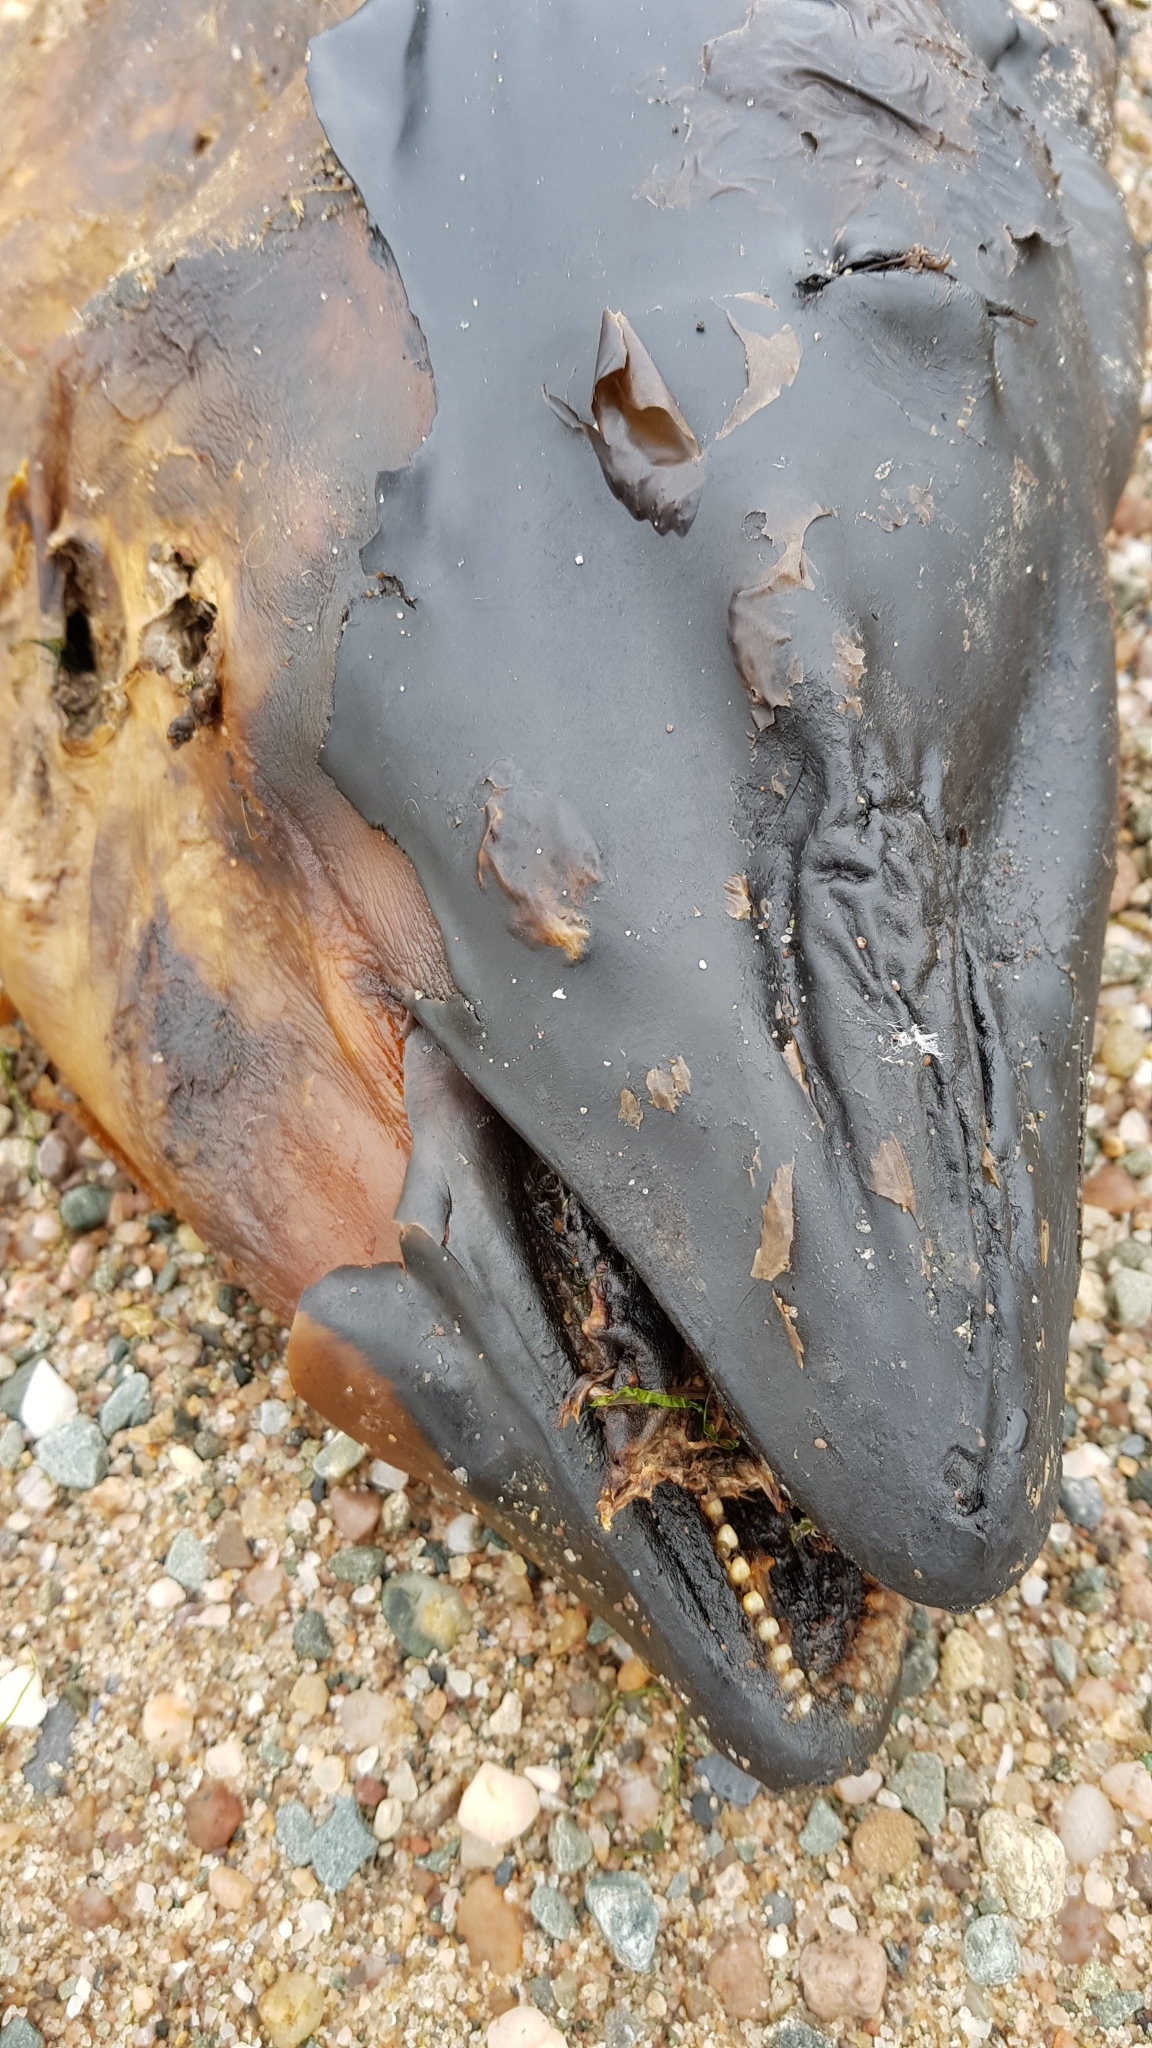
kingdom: Animalia
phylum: Chordata
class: Mammalia
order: Cetacea
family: Phocoenidae
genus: Phocoena
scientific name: Phocoena phocoena
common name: Harbor porpoise
